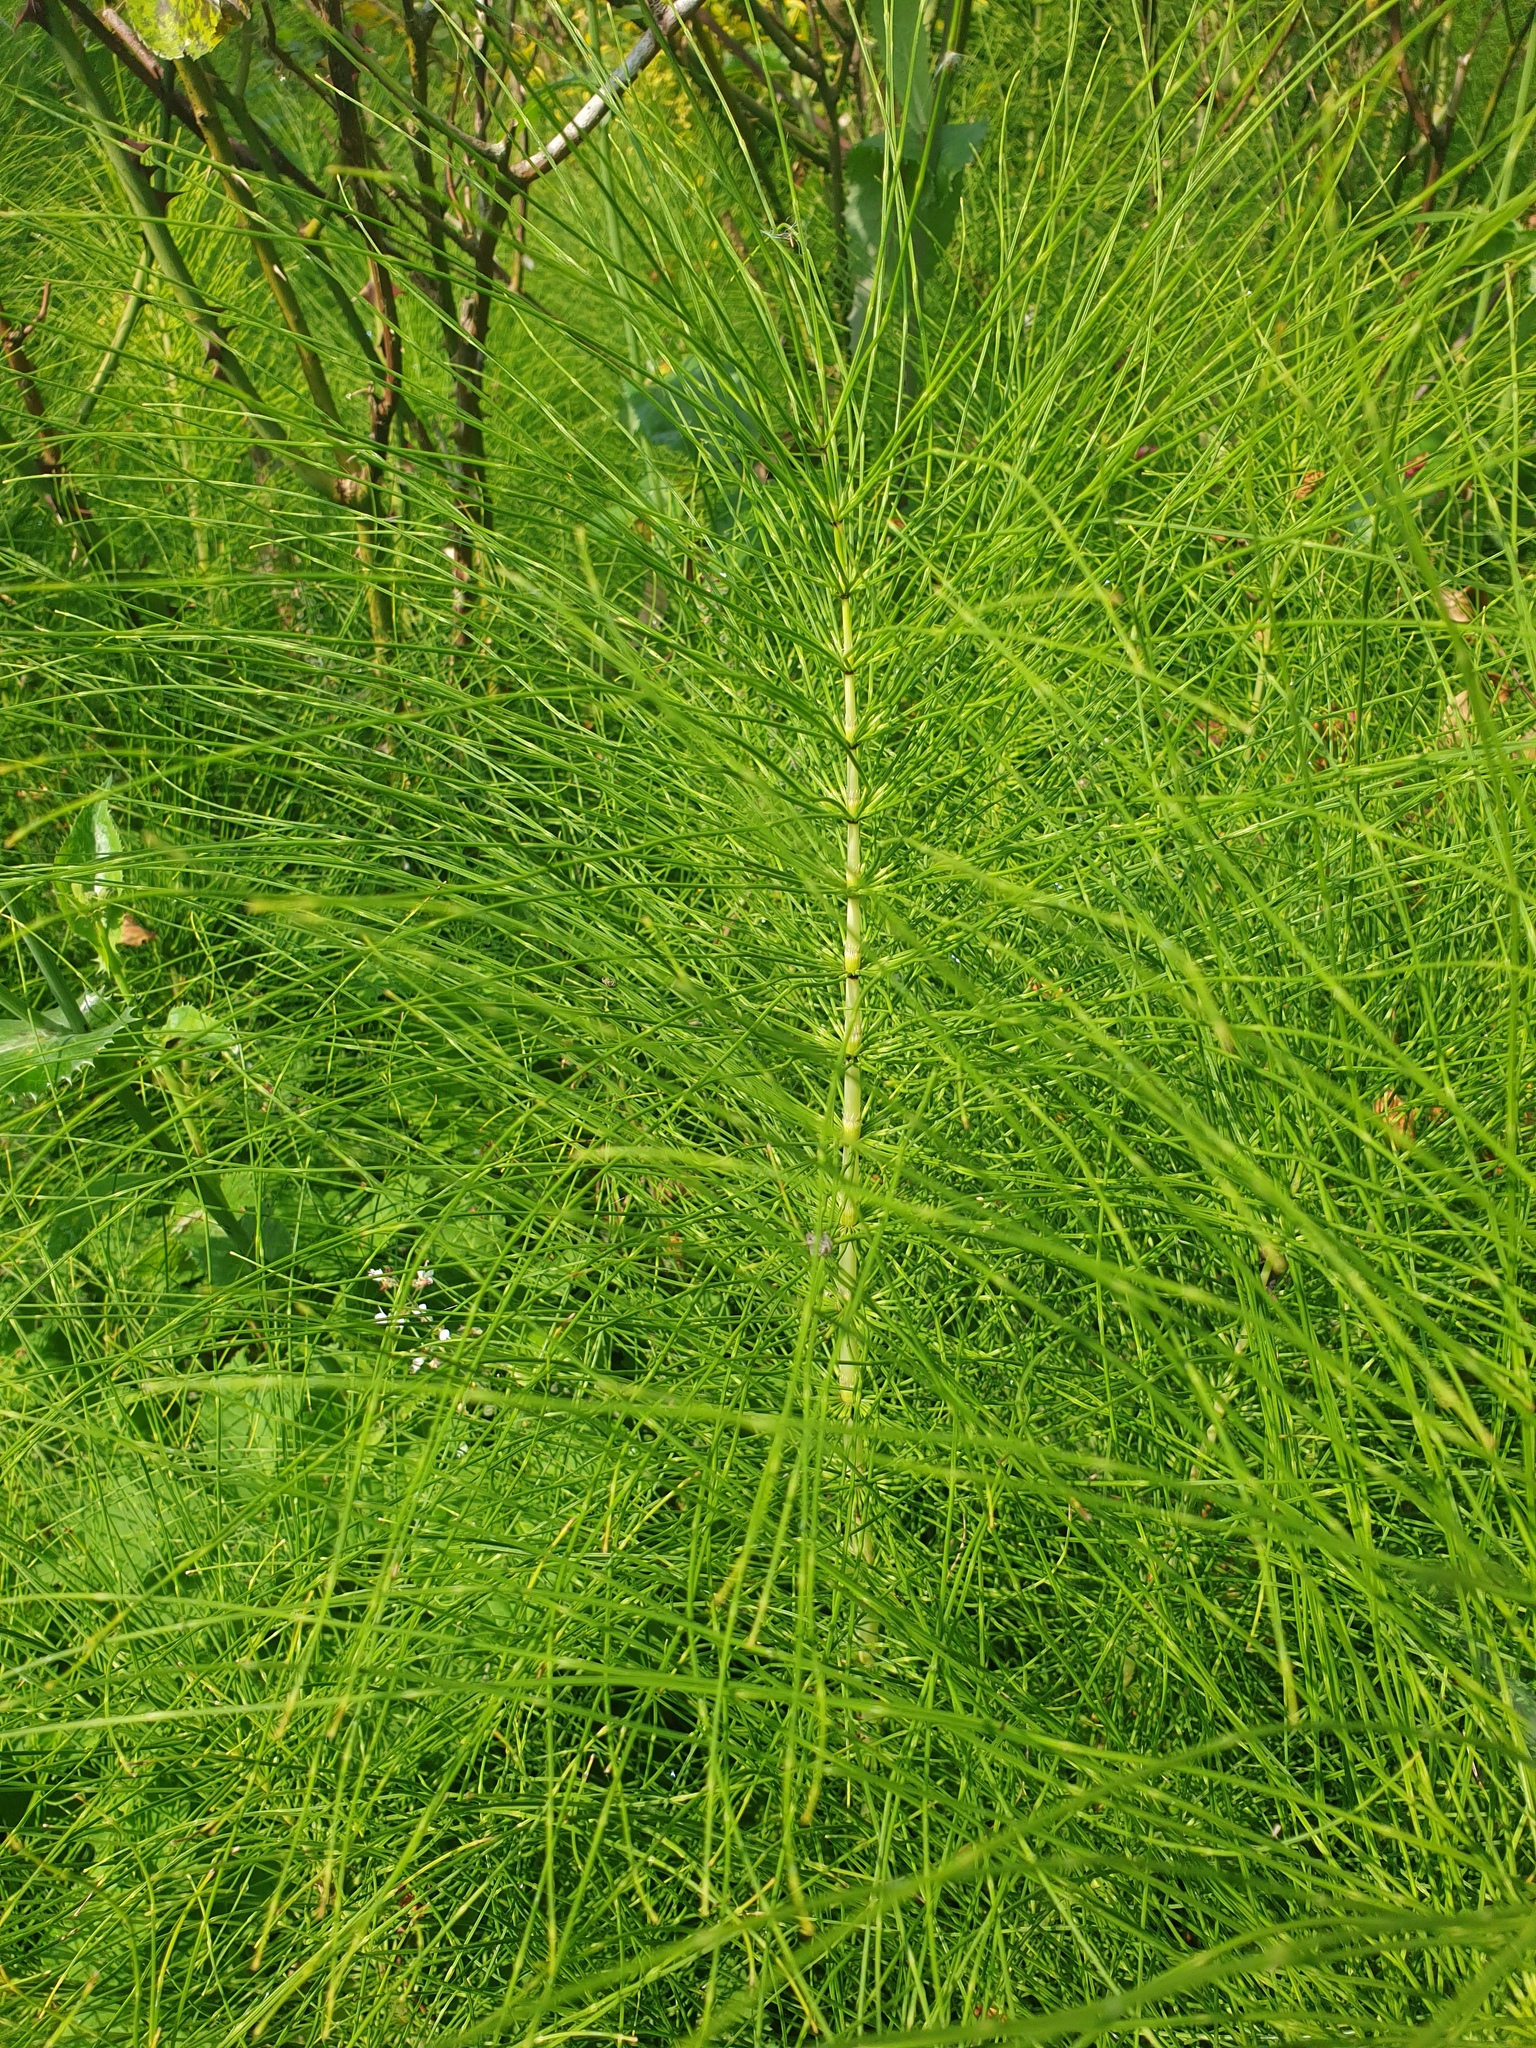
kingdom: Plantae
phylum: Tracheophyta
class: Polypodiopsida
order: Equisetales
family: Equisetaceae
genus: Equisetum
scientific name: Equisetum telmateia
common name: Great horsetail
